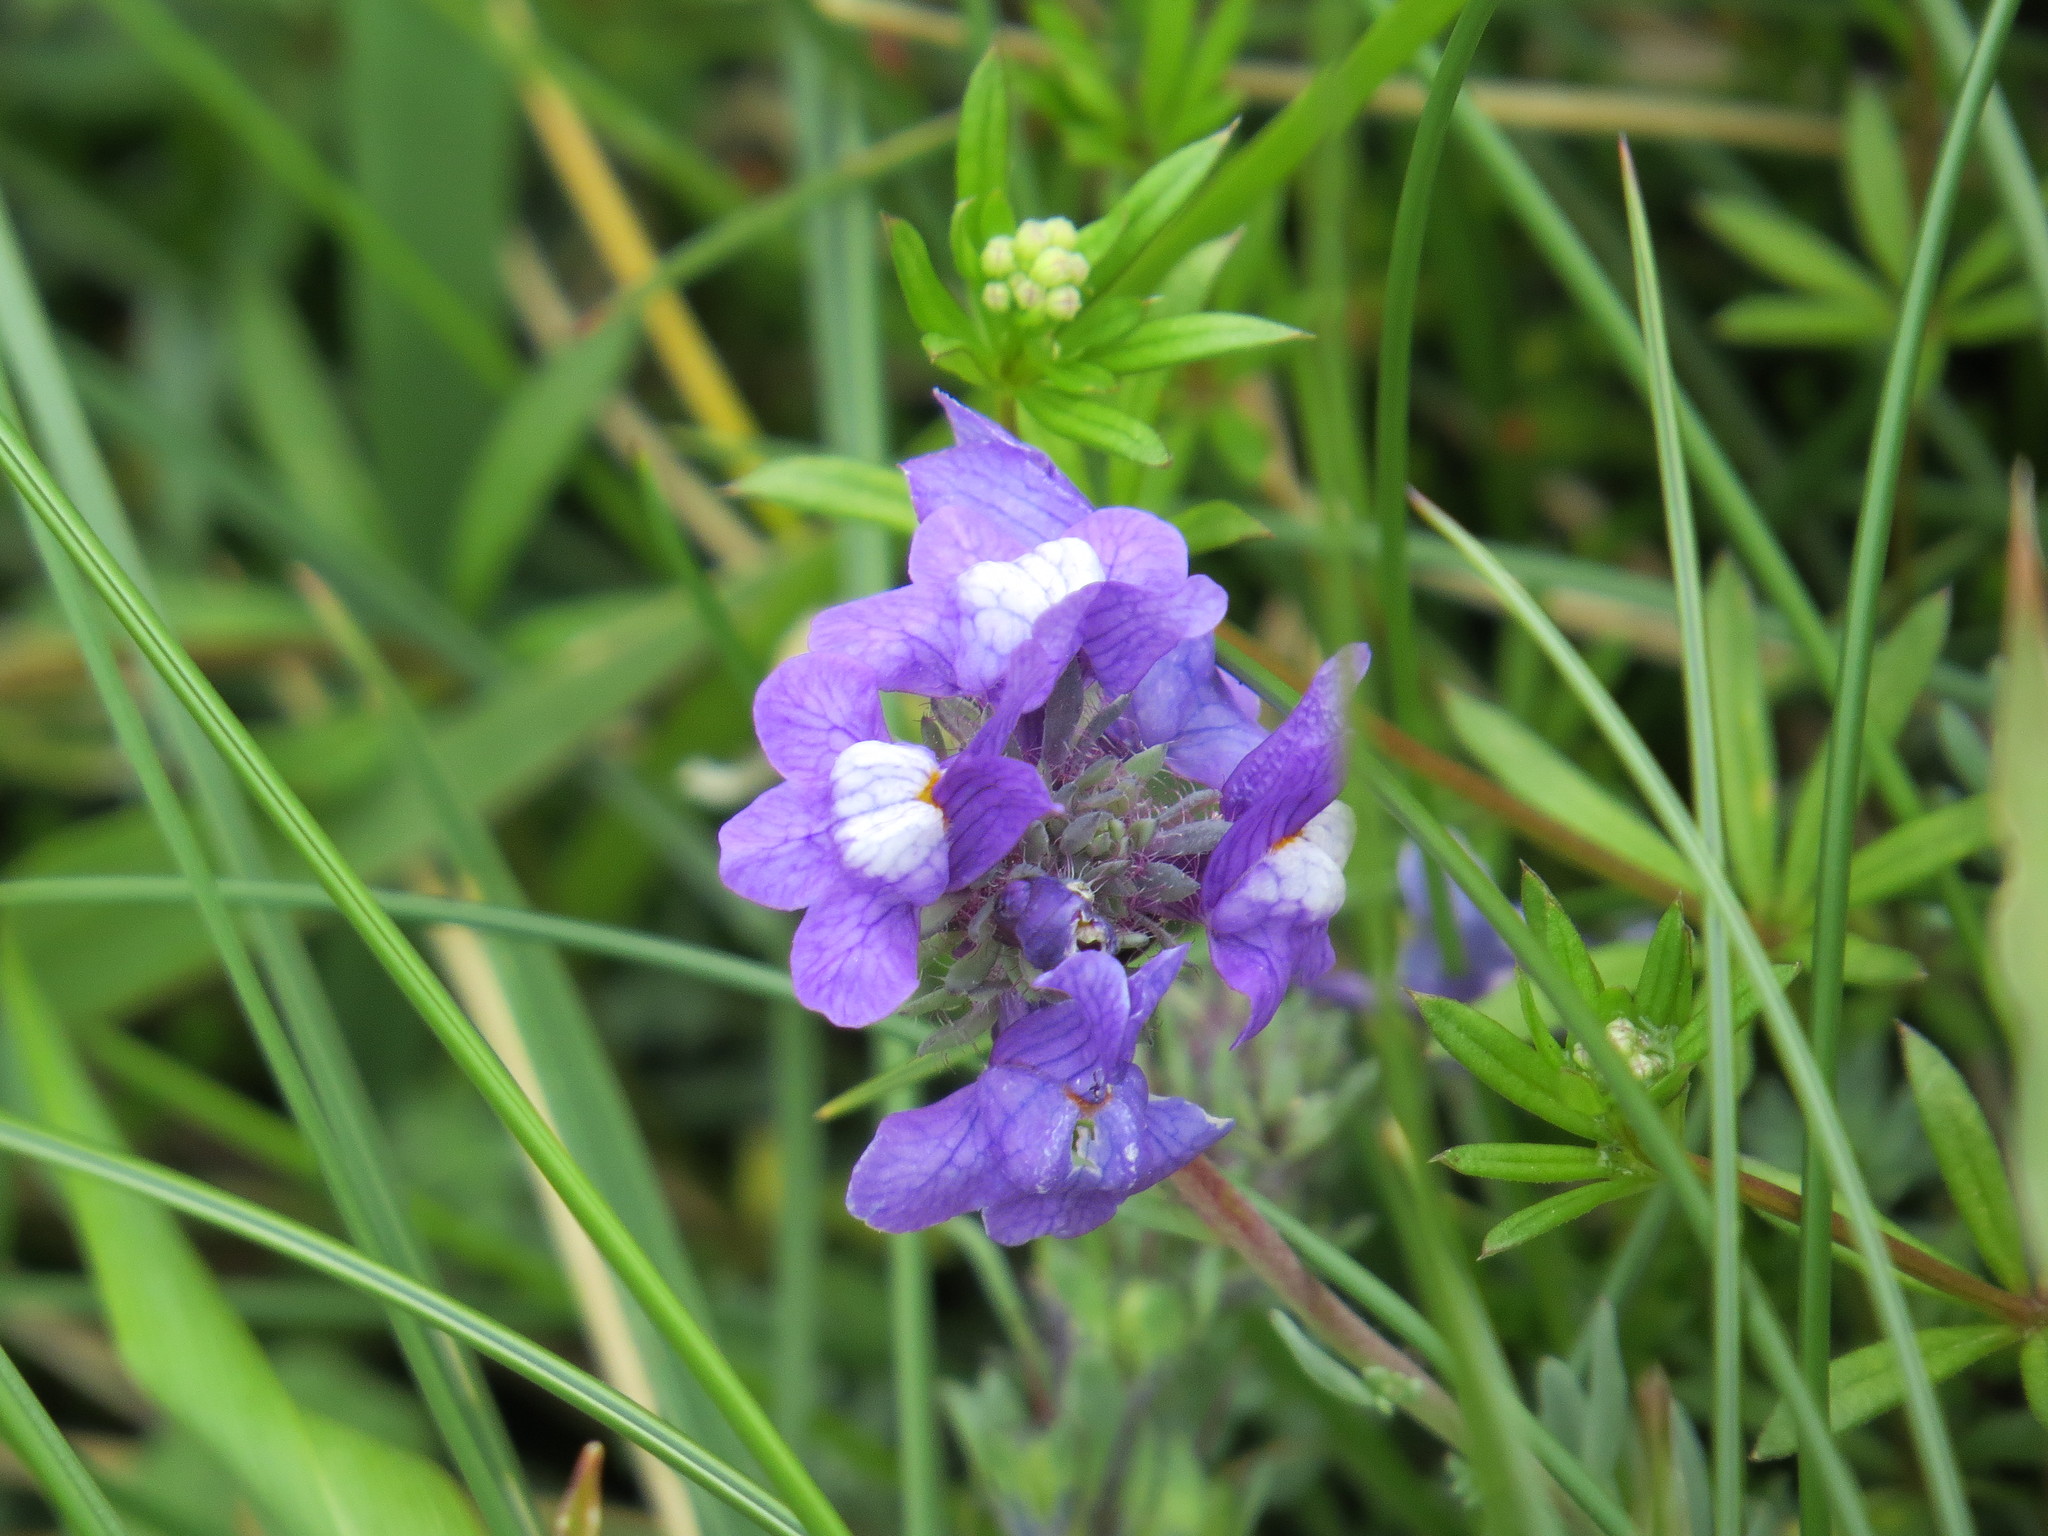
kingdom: Plantae
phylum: Tracheophyta
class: Magnoliopsida
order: Lamiales
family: Plantaginaceae
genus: Linaria
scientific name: Linaria alpina
